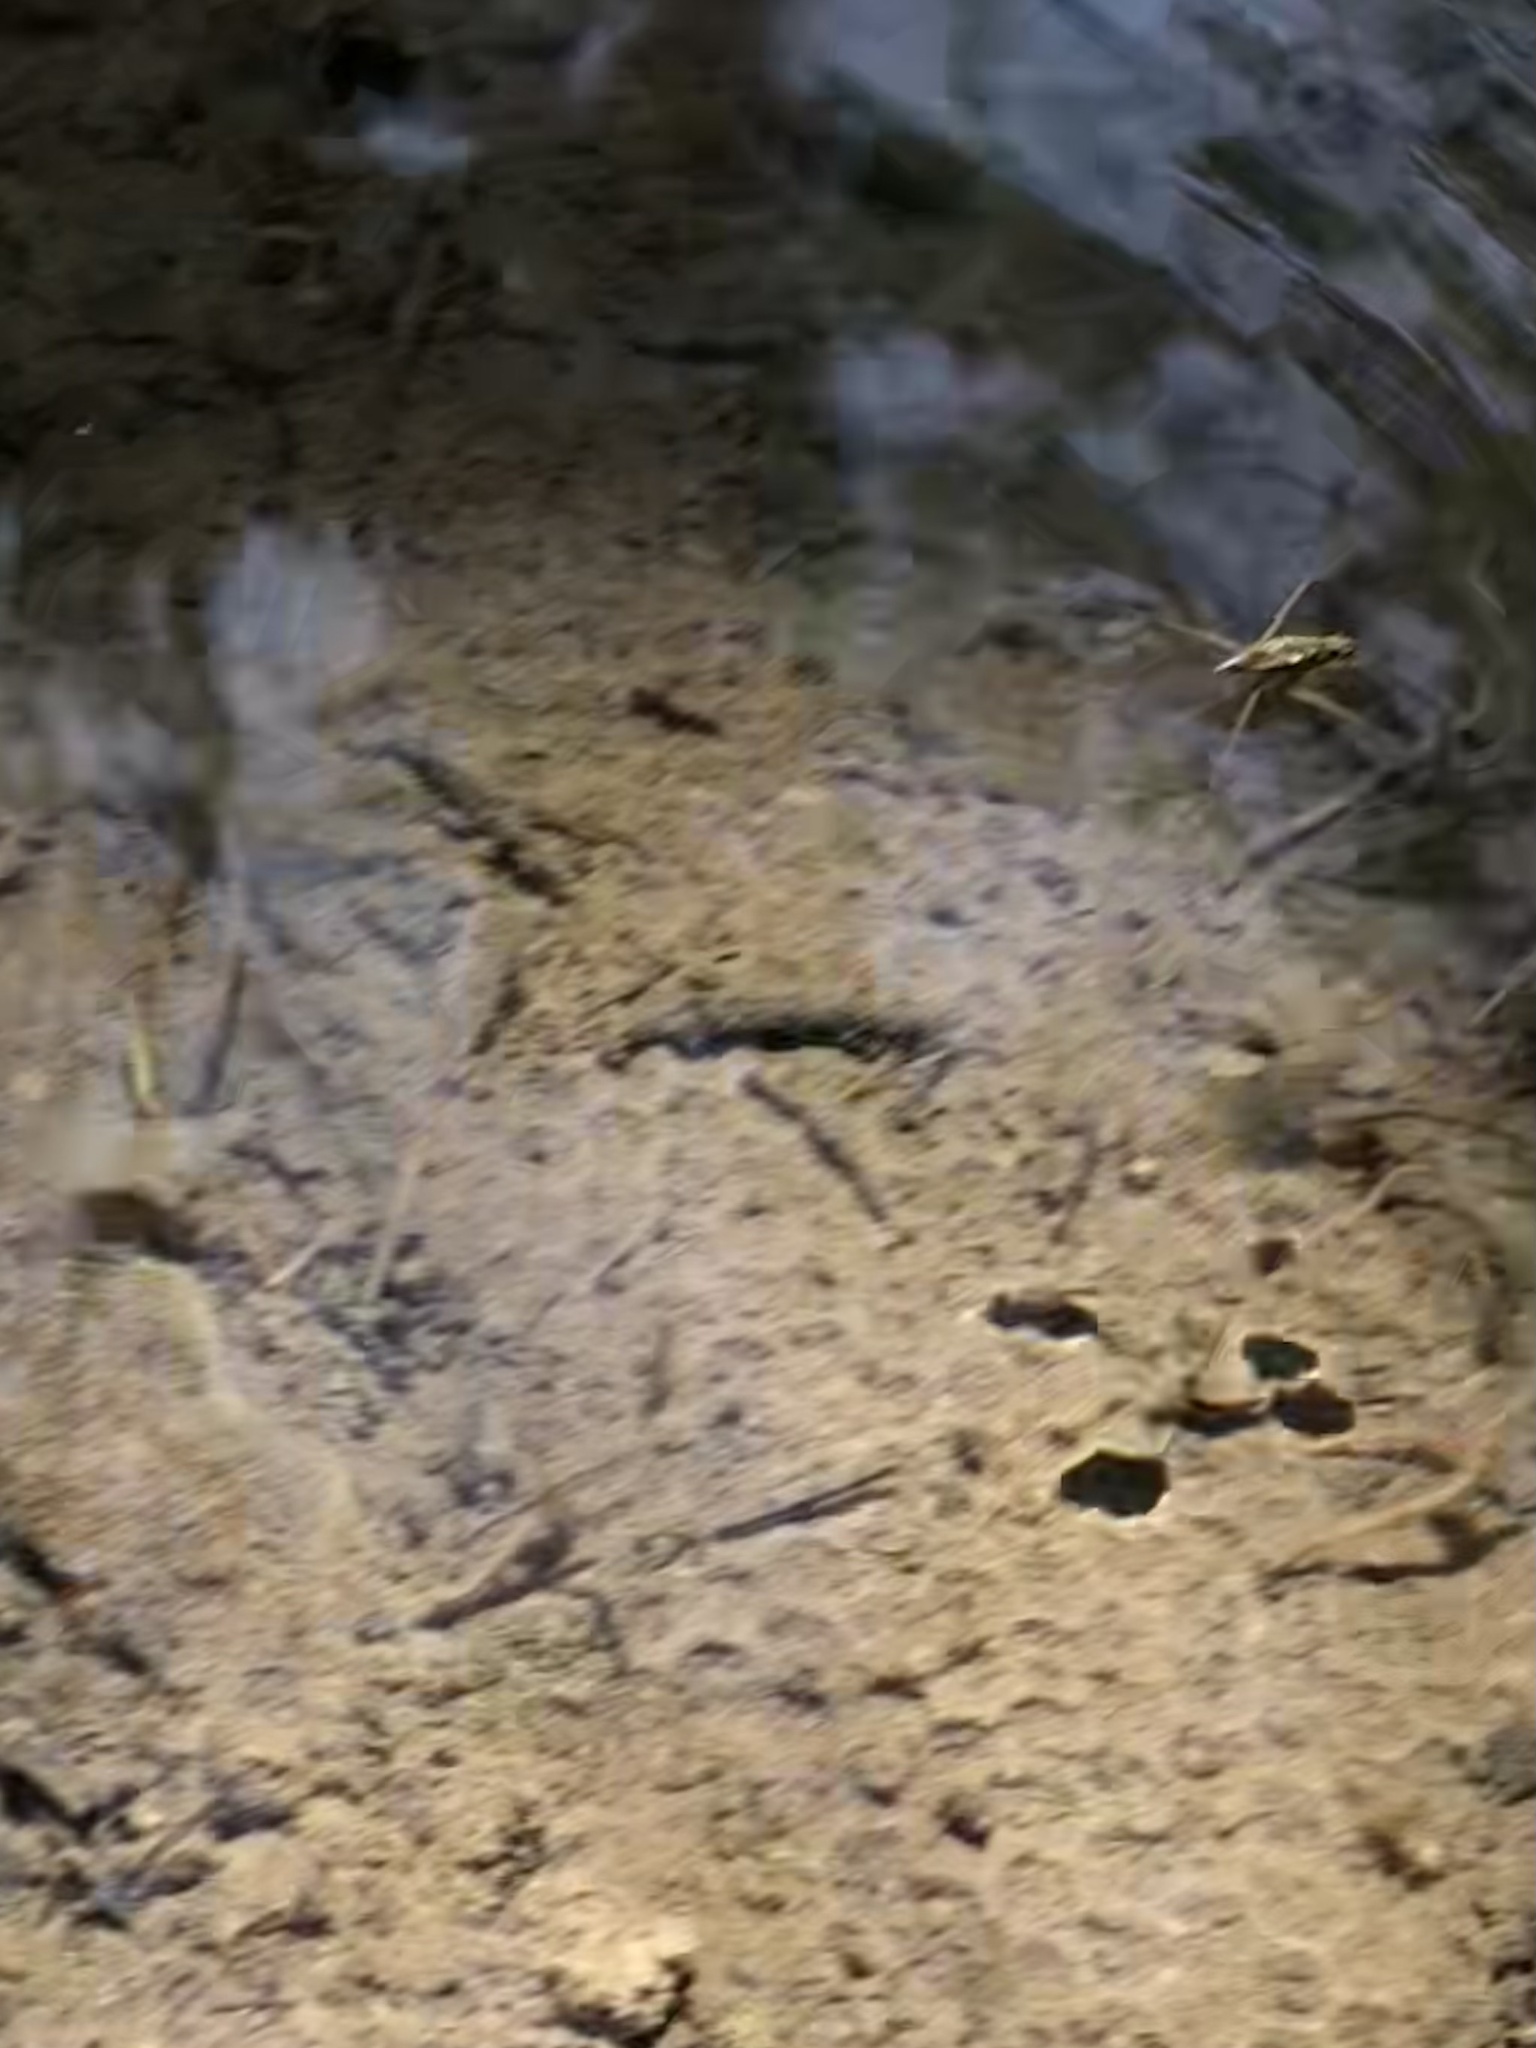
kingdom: Animalia
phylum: Arthropoda
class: Insecta
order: Hemiptera
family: Gerridae
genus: Aquarius
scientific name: Aquarius remigis
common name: Common water strider
